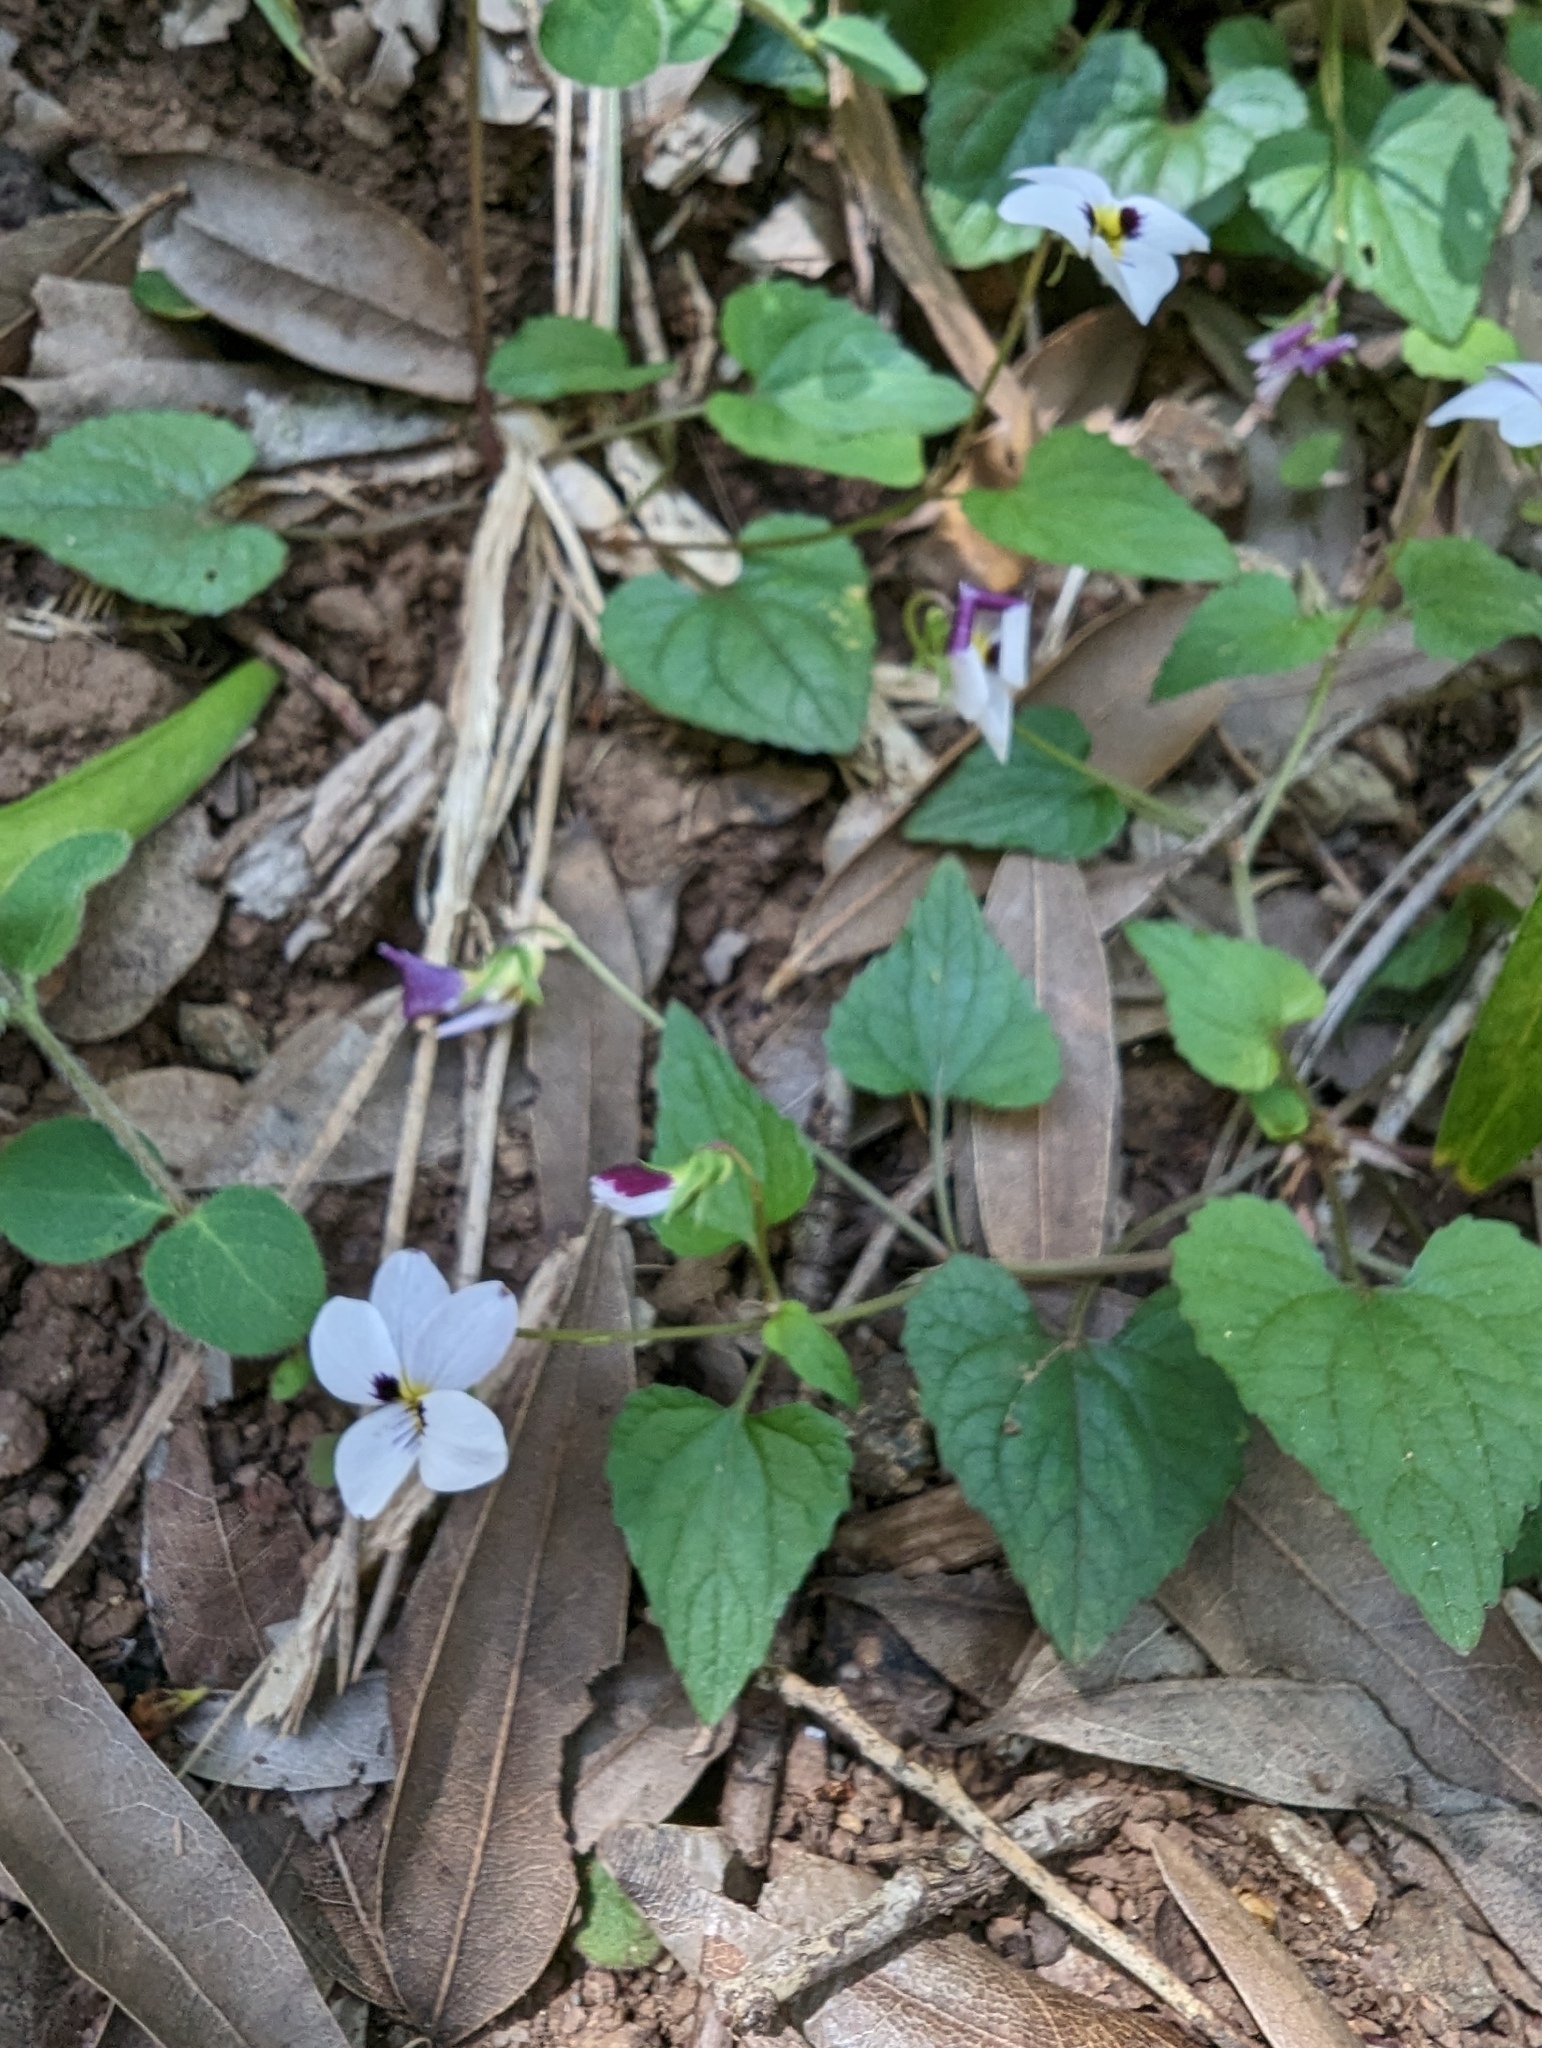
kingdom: Plantae
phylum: Tracheophyta
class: Magnoliopsida
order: Malpighiales
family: Violaceae
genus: Viola
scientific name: Viola ocellata
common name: Western heart's ease
